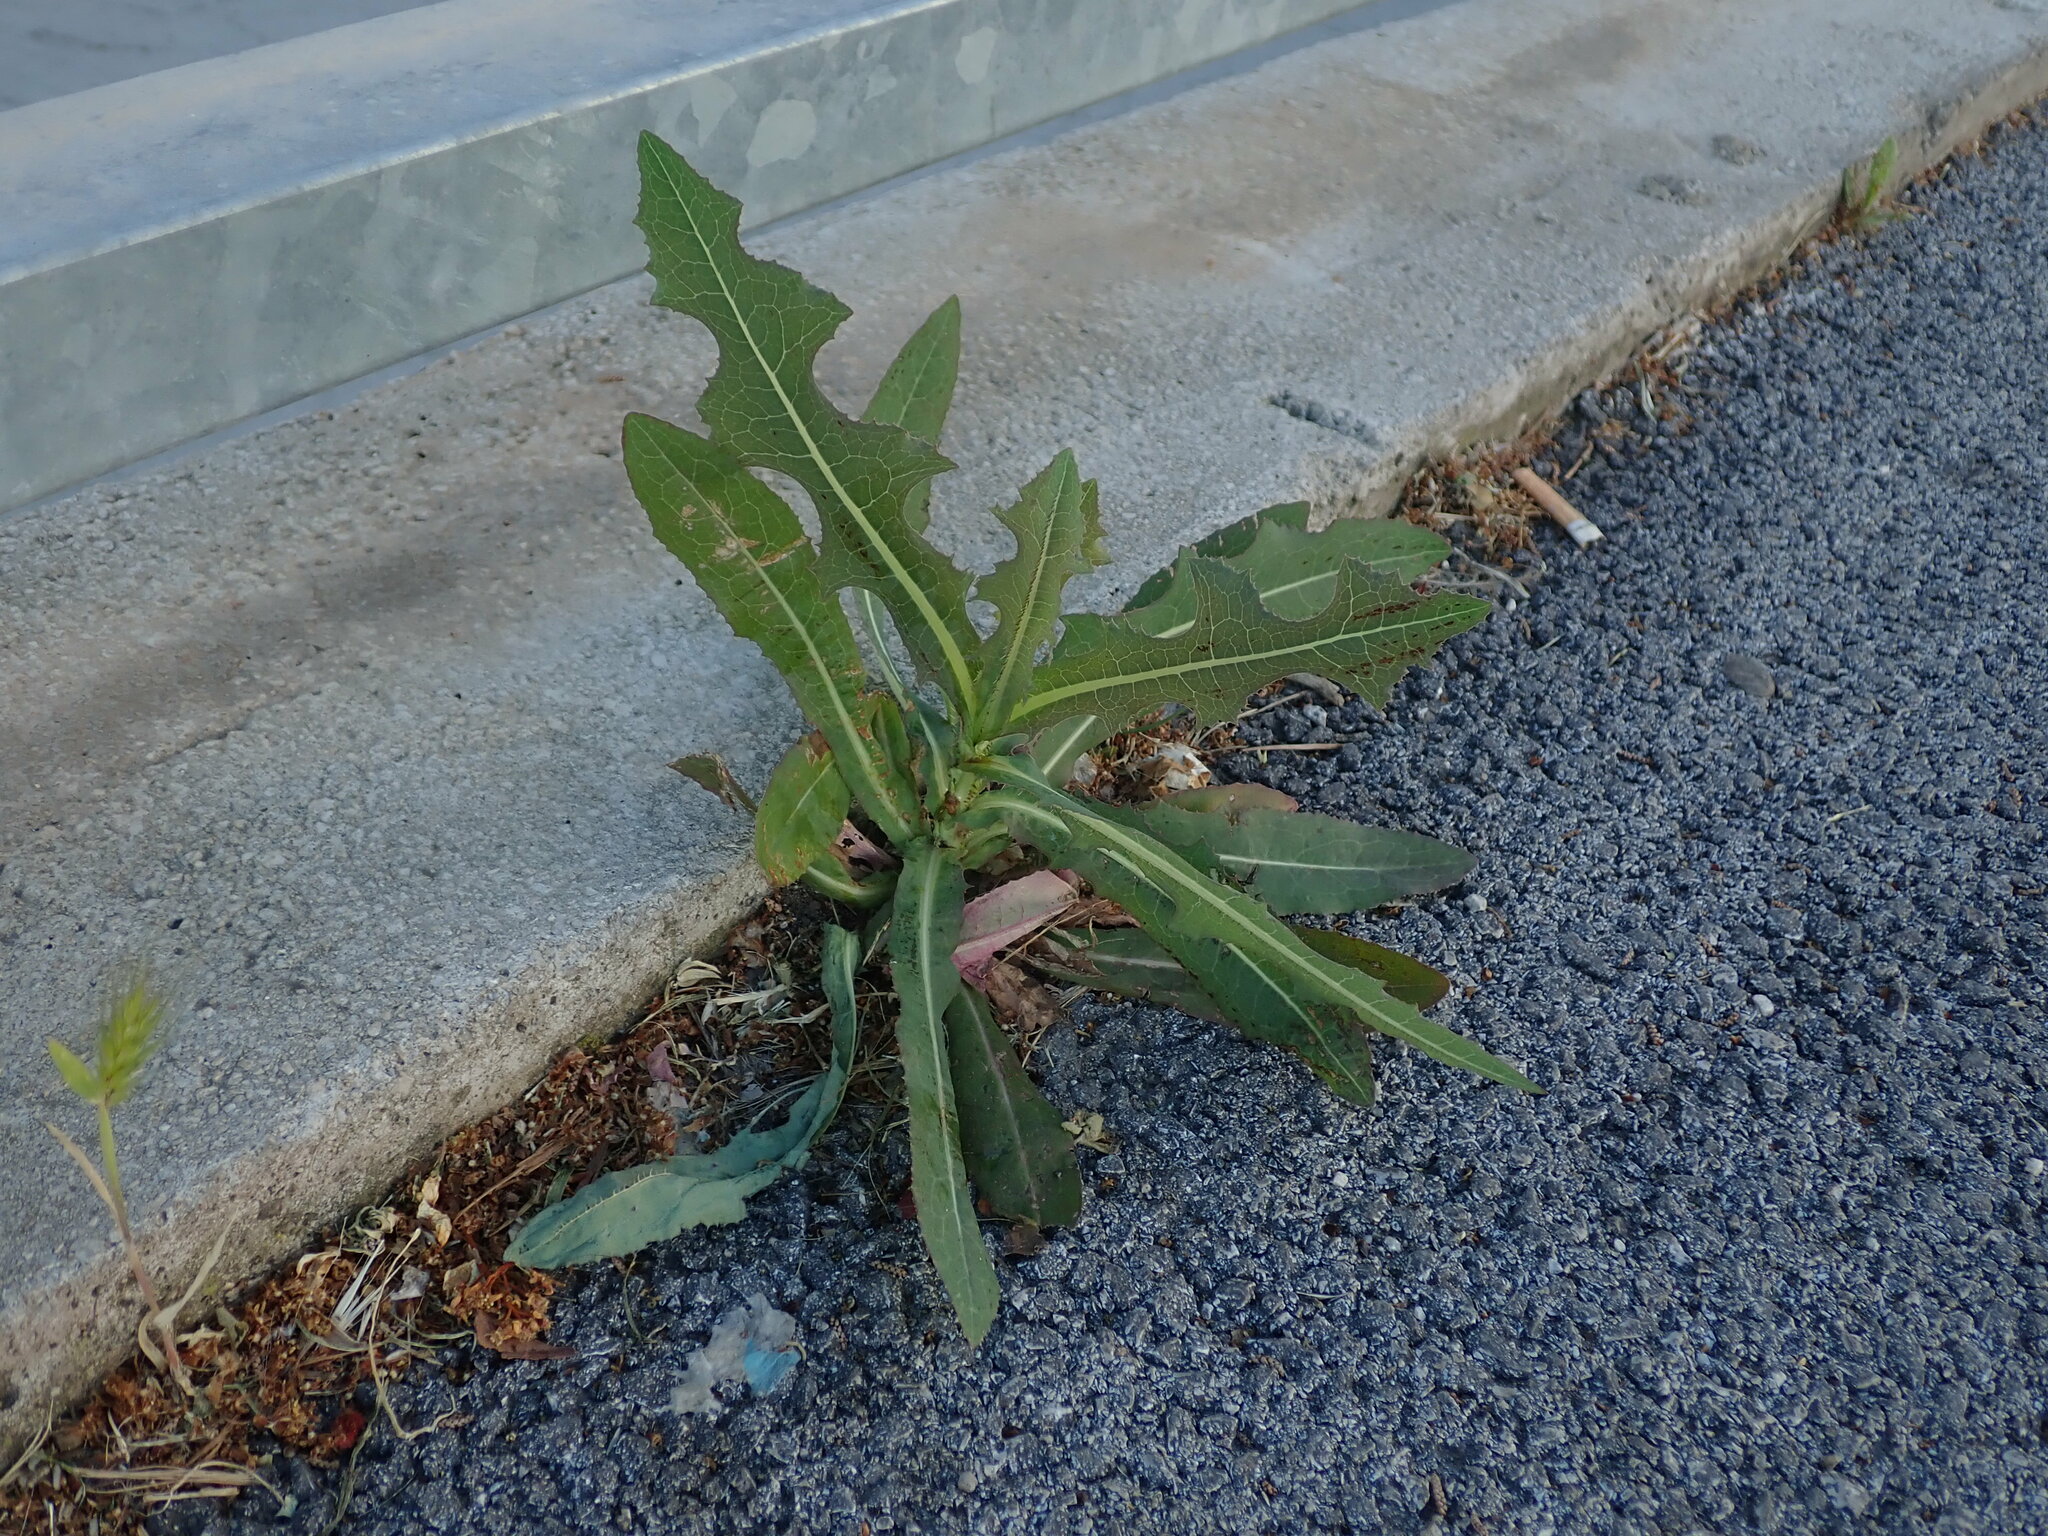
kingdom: Plantae
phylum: Tracheophyta
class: Magnoliopsida
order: Asterales
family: Asteraceae
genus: Lactuca
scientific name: Lactuca serriola
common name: Prickly lettuce
